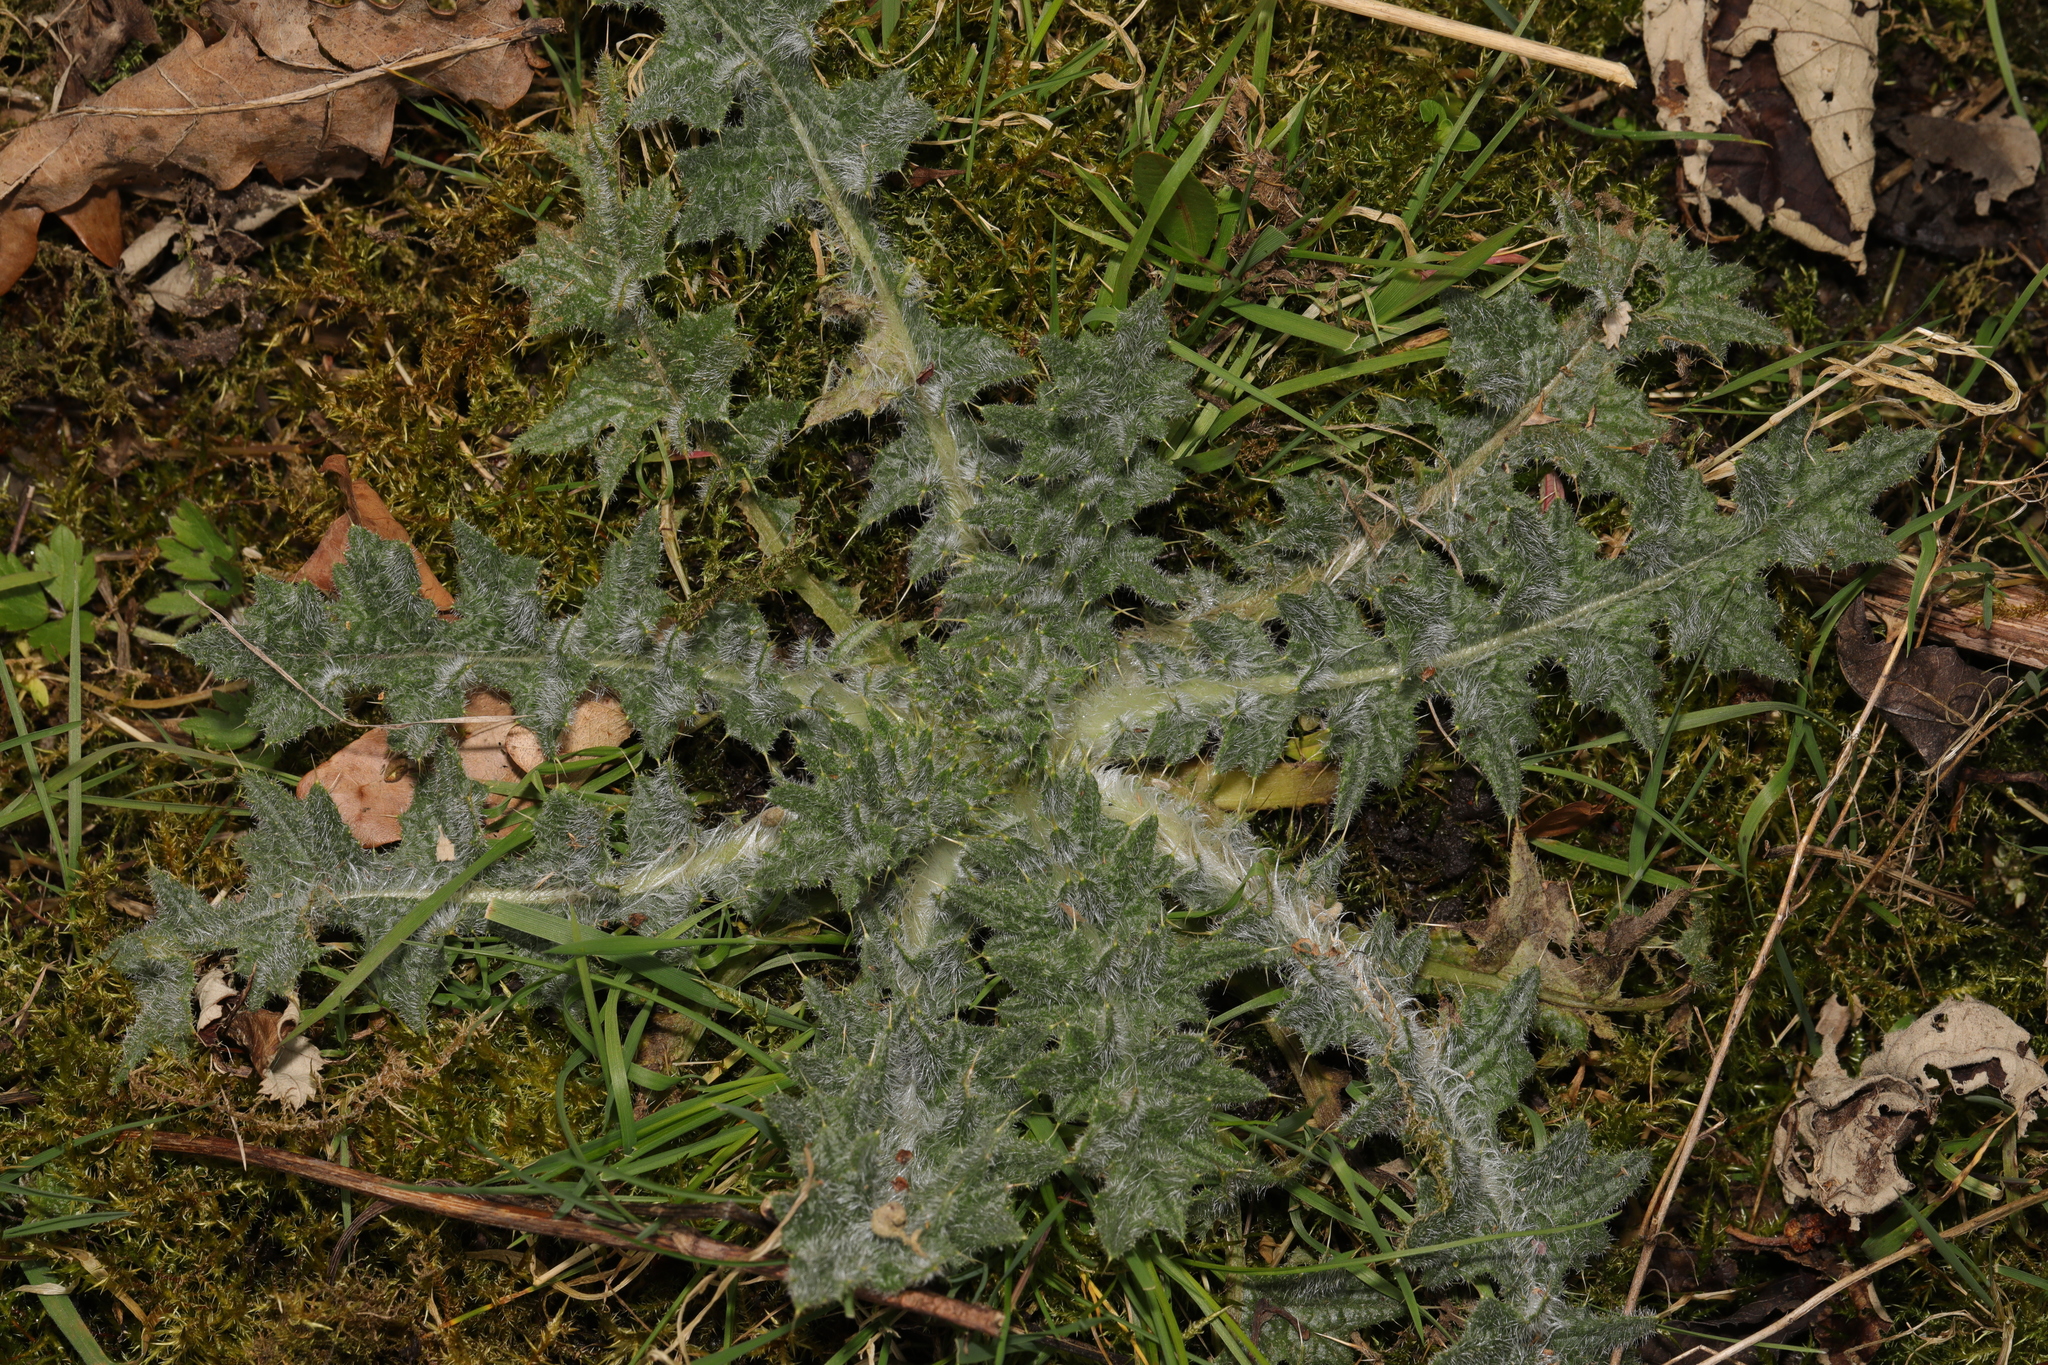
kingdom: Plantae
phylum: Tracheophyta
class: Magnoliopsida
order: Asterales
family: Asteraceae
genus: Cirsium
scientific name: Cirsium vulgare
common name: Bull thistle
